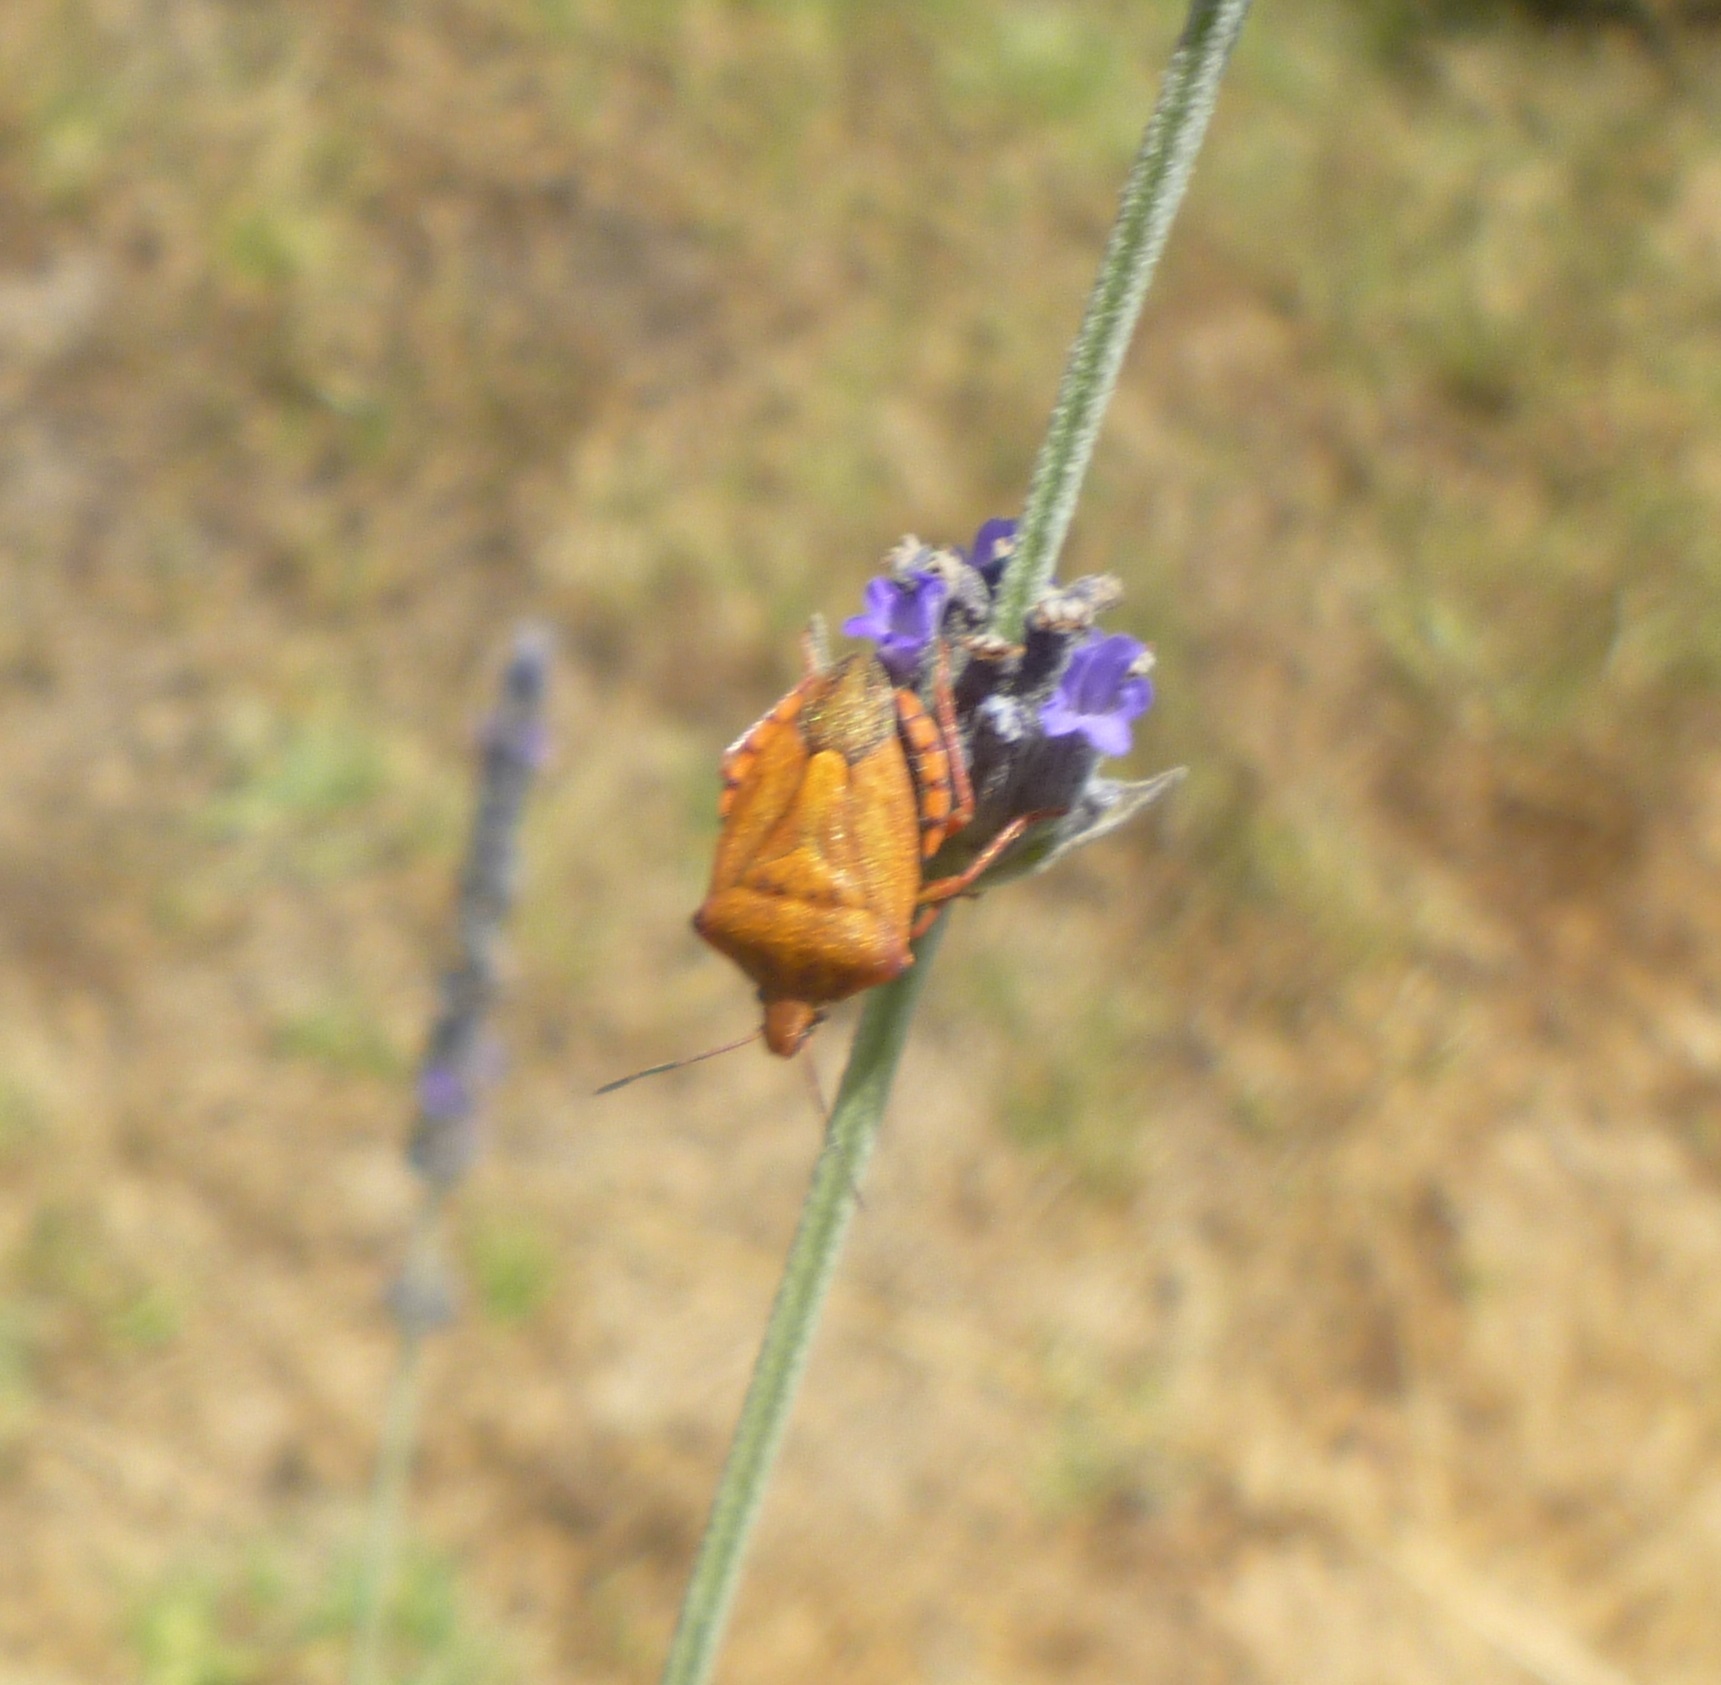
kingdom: Animalia
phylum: Arthropoda
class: Insecta
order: Hemiptera
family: Pentatomidae
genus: Carpocoris
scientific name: Carpocoris mediterraneus
